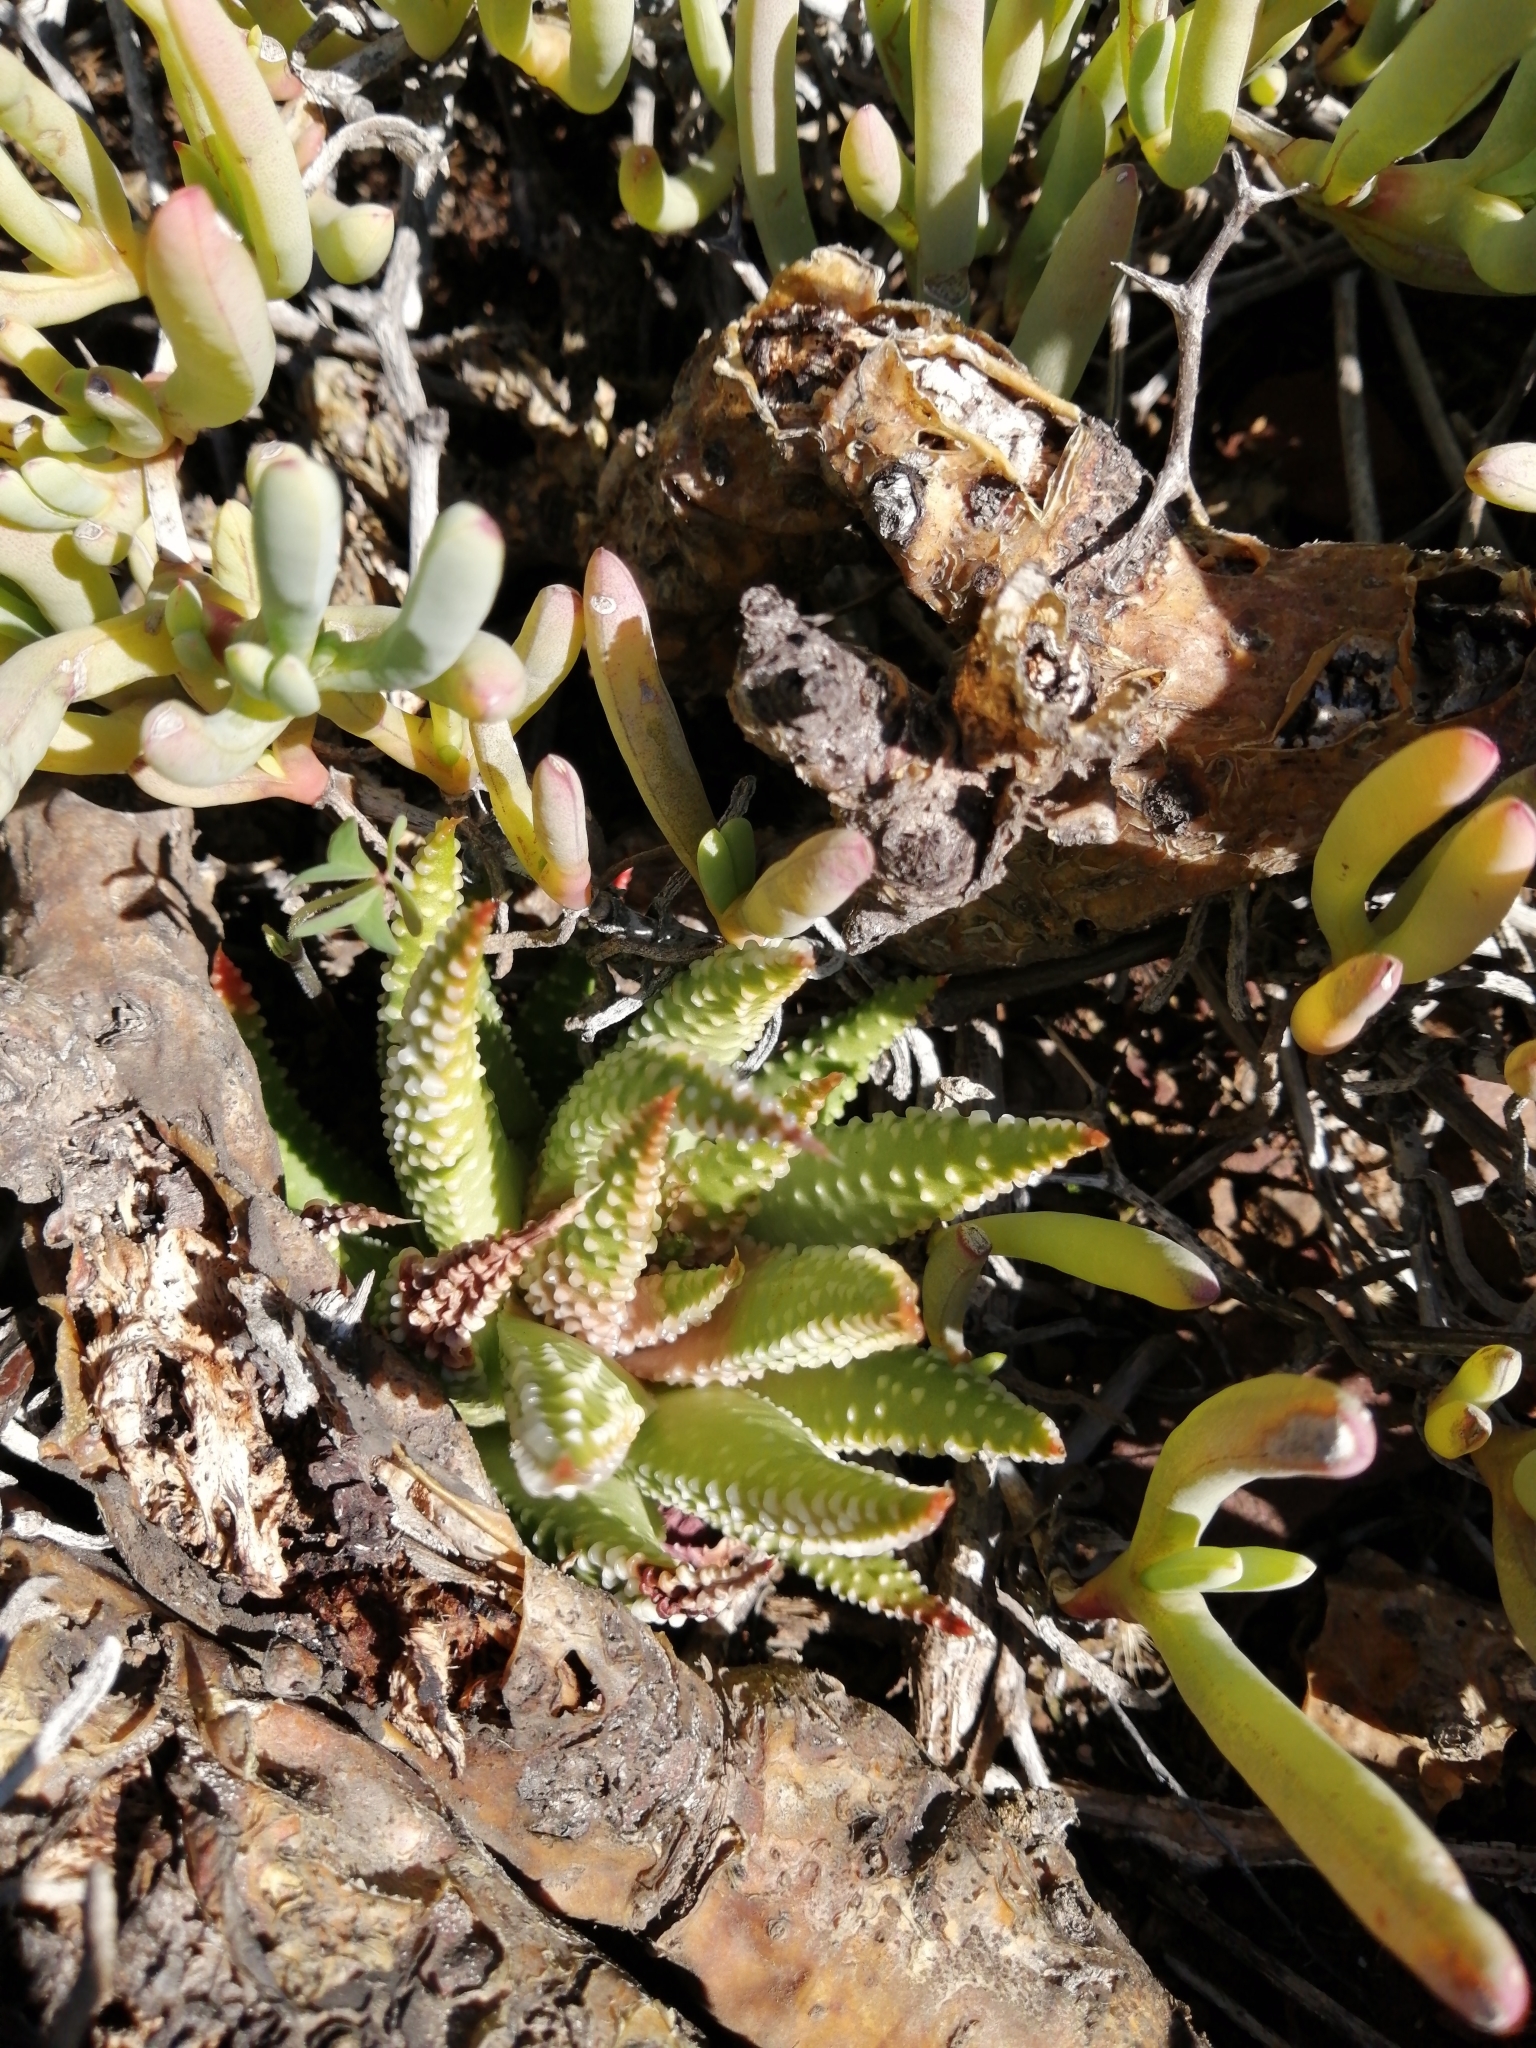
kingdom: Plantae
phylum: Tracheophyta
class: Liliopsida
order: Asparagales
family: Asphodelaceae
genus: Tulista
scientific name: Tulista pumila
